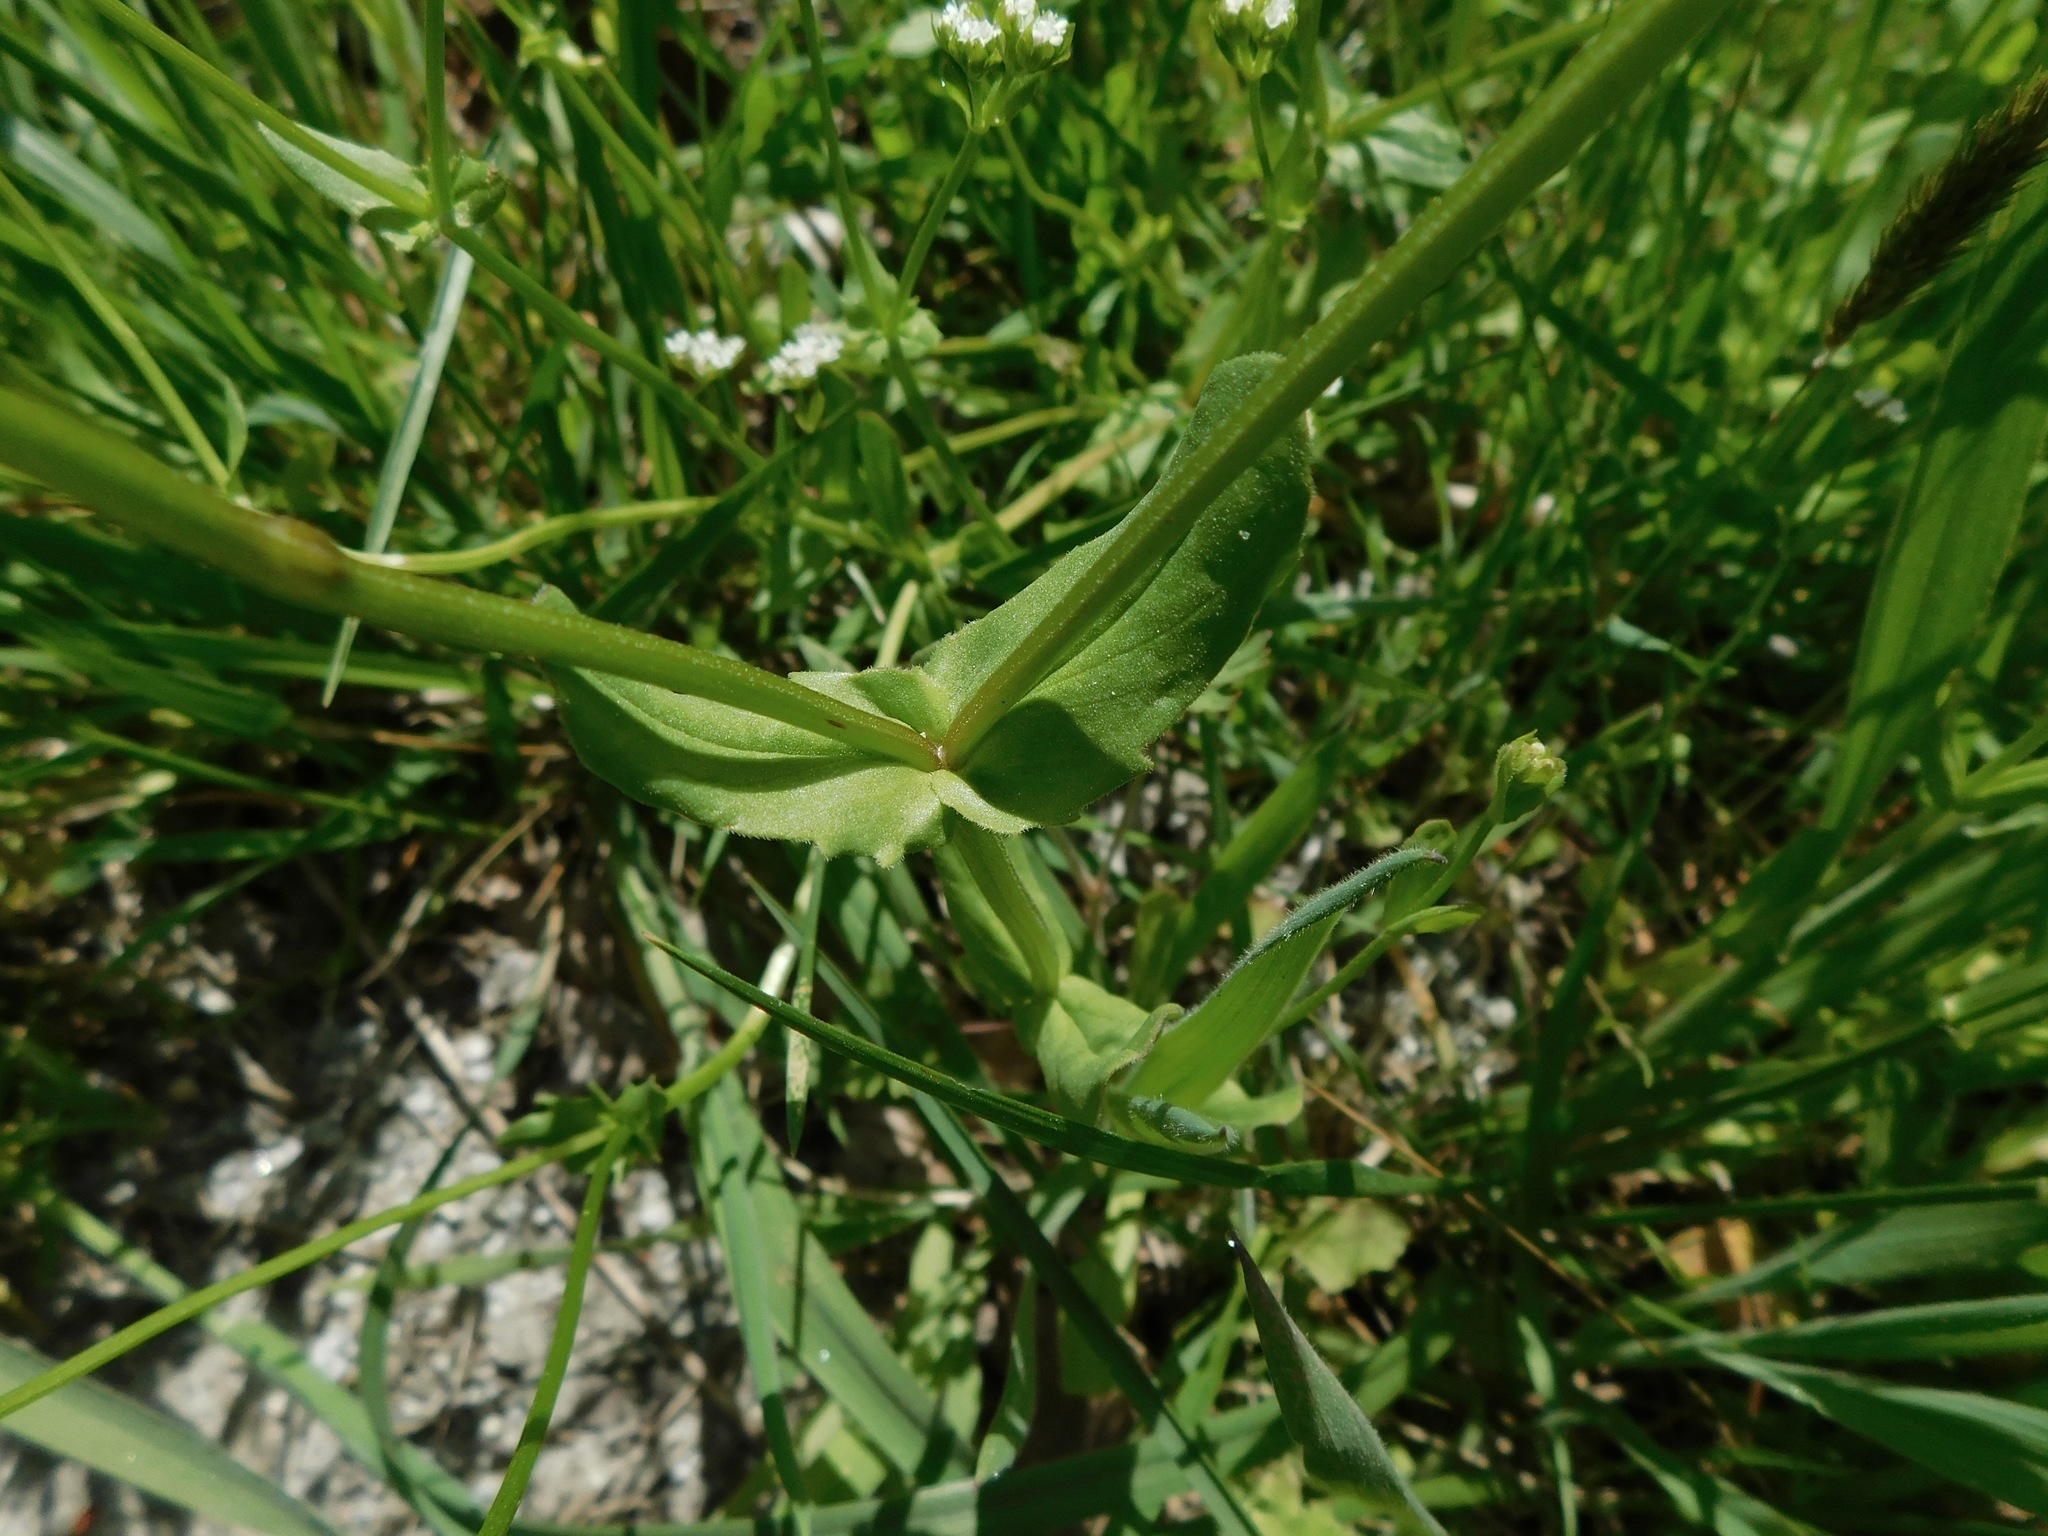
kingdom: Plantae
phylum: Tracheophyta
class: Magnoliopsida
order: Dipsacales
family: Caprifoliaceae
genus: Valerianella
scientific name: Valerianella radiata
